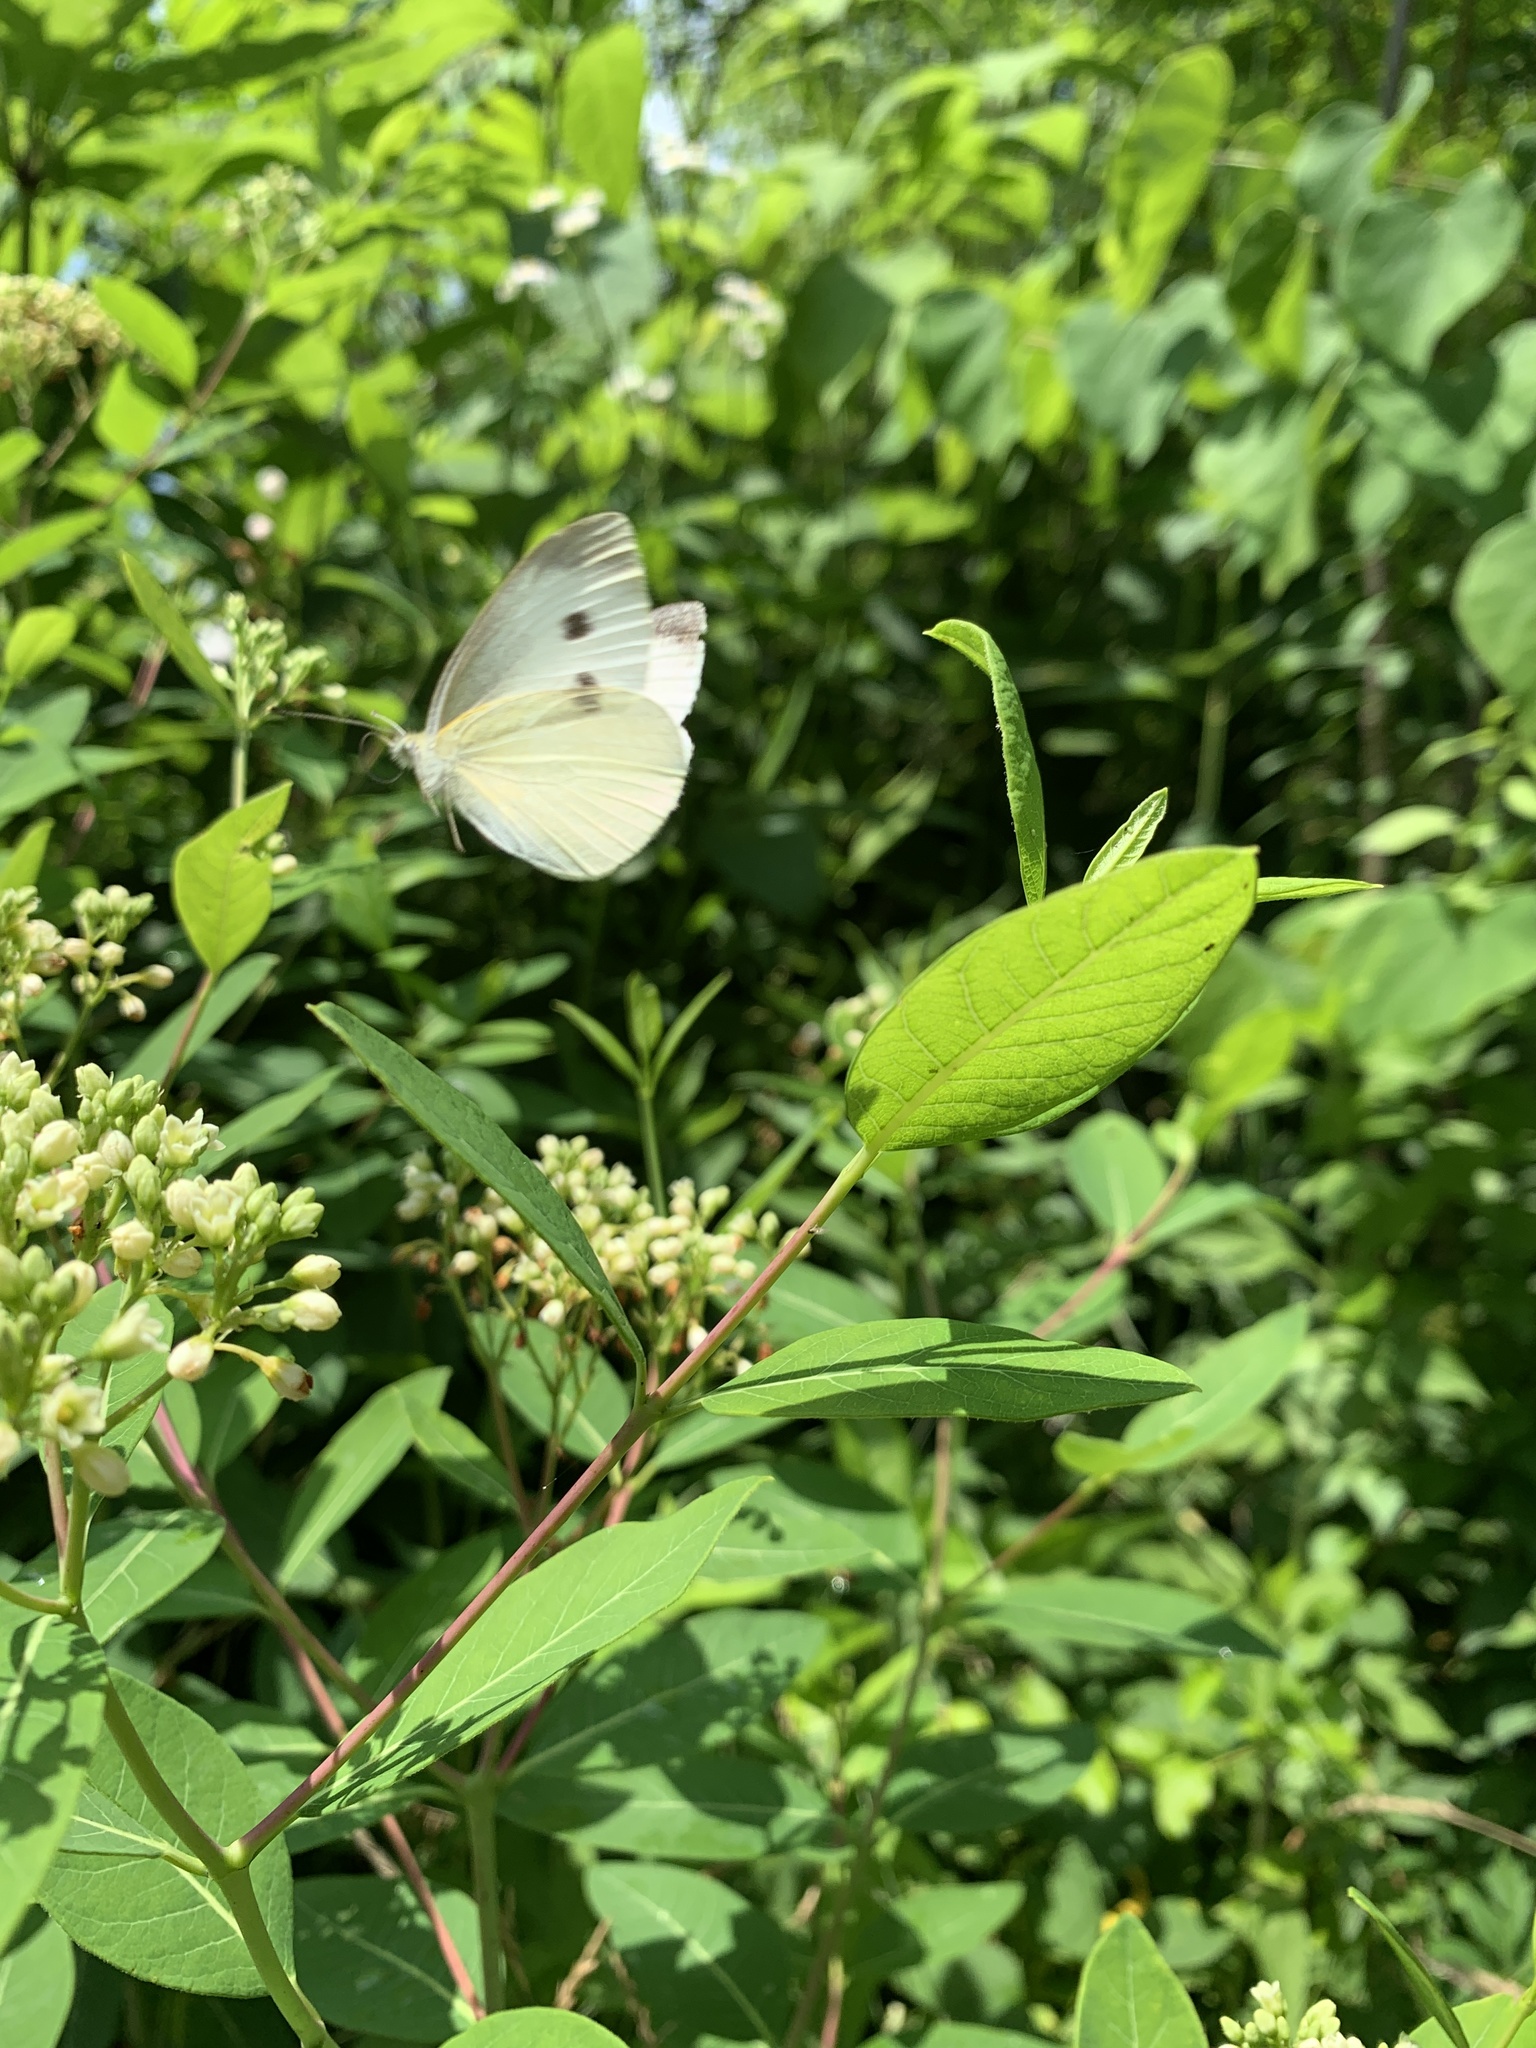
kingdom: Animalia
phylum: Arthropoda
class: Insecta
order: Lepidoptera
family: Pieridae
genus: Pieris
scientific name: Pieris rapae
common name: Small white
